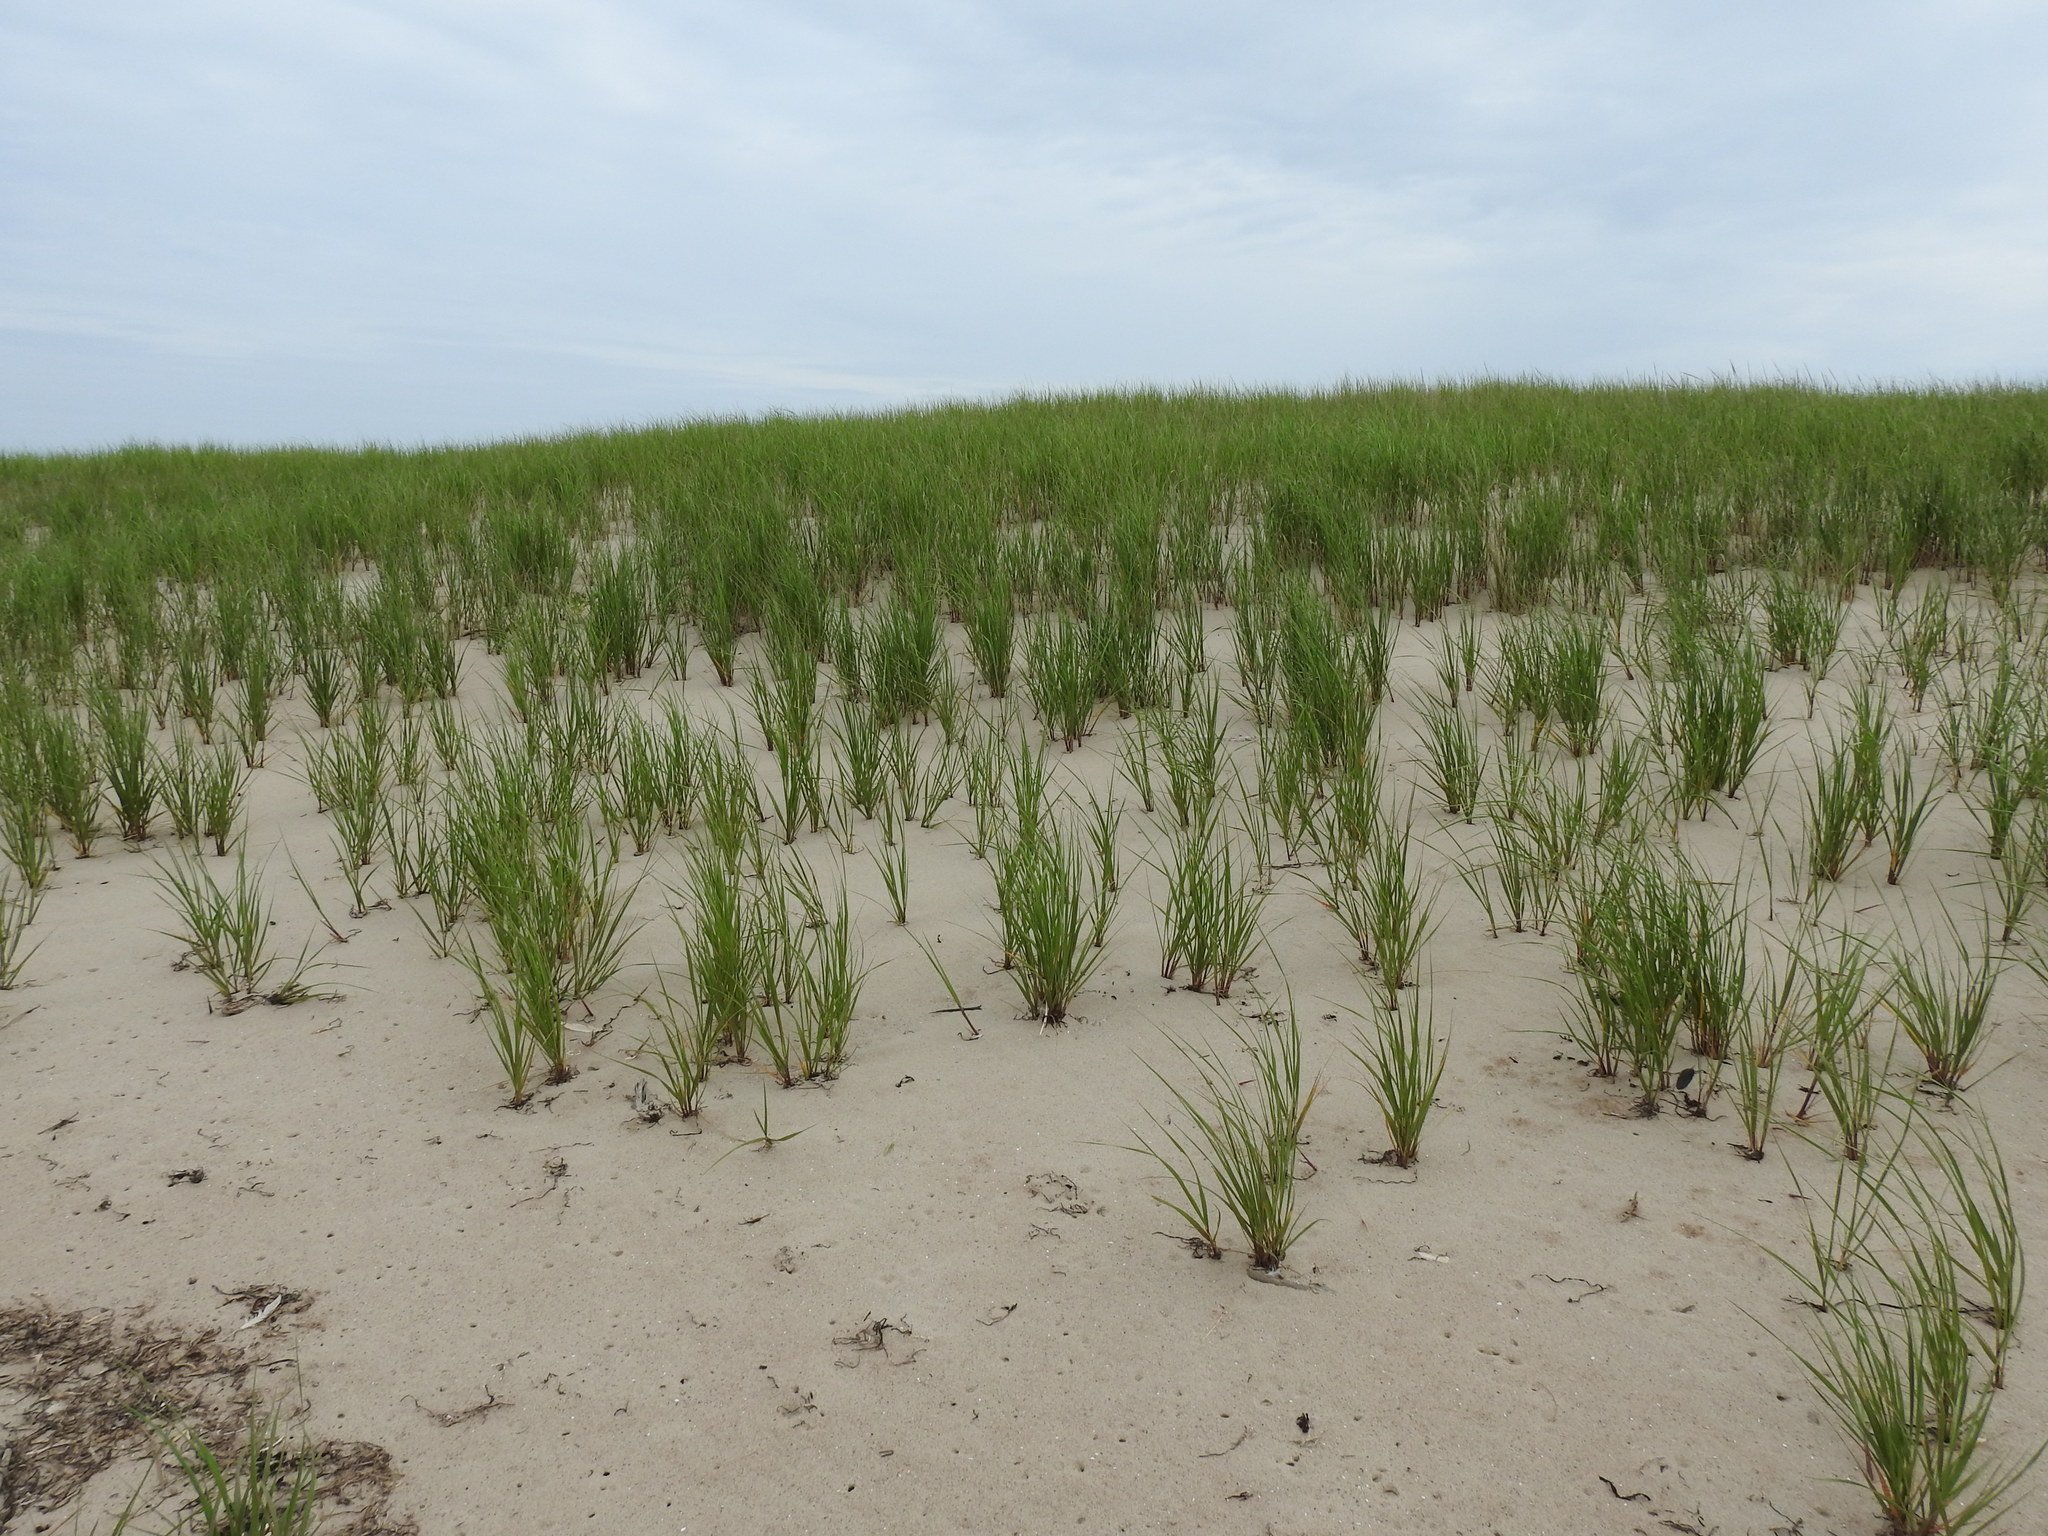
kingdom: Plantae
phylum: Tracheophyta
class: Liliopsida
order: Poales
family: Poaceae
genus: Calamagrostis
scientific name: Calamagrostis breviligulata
